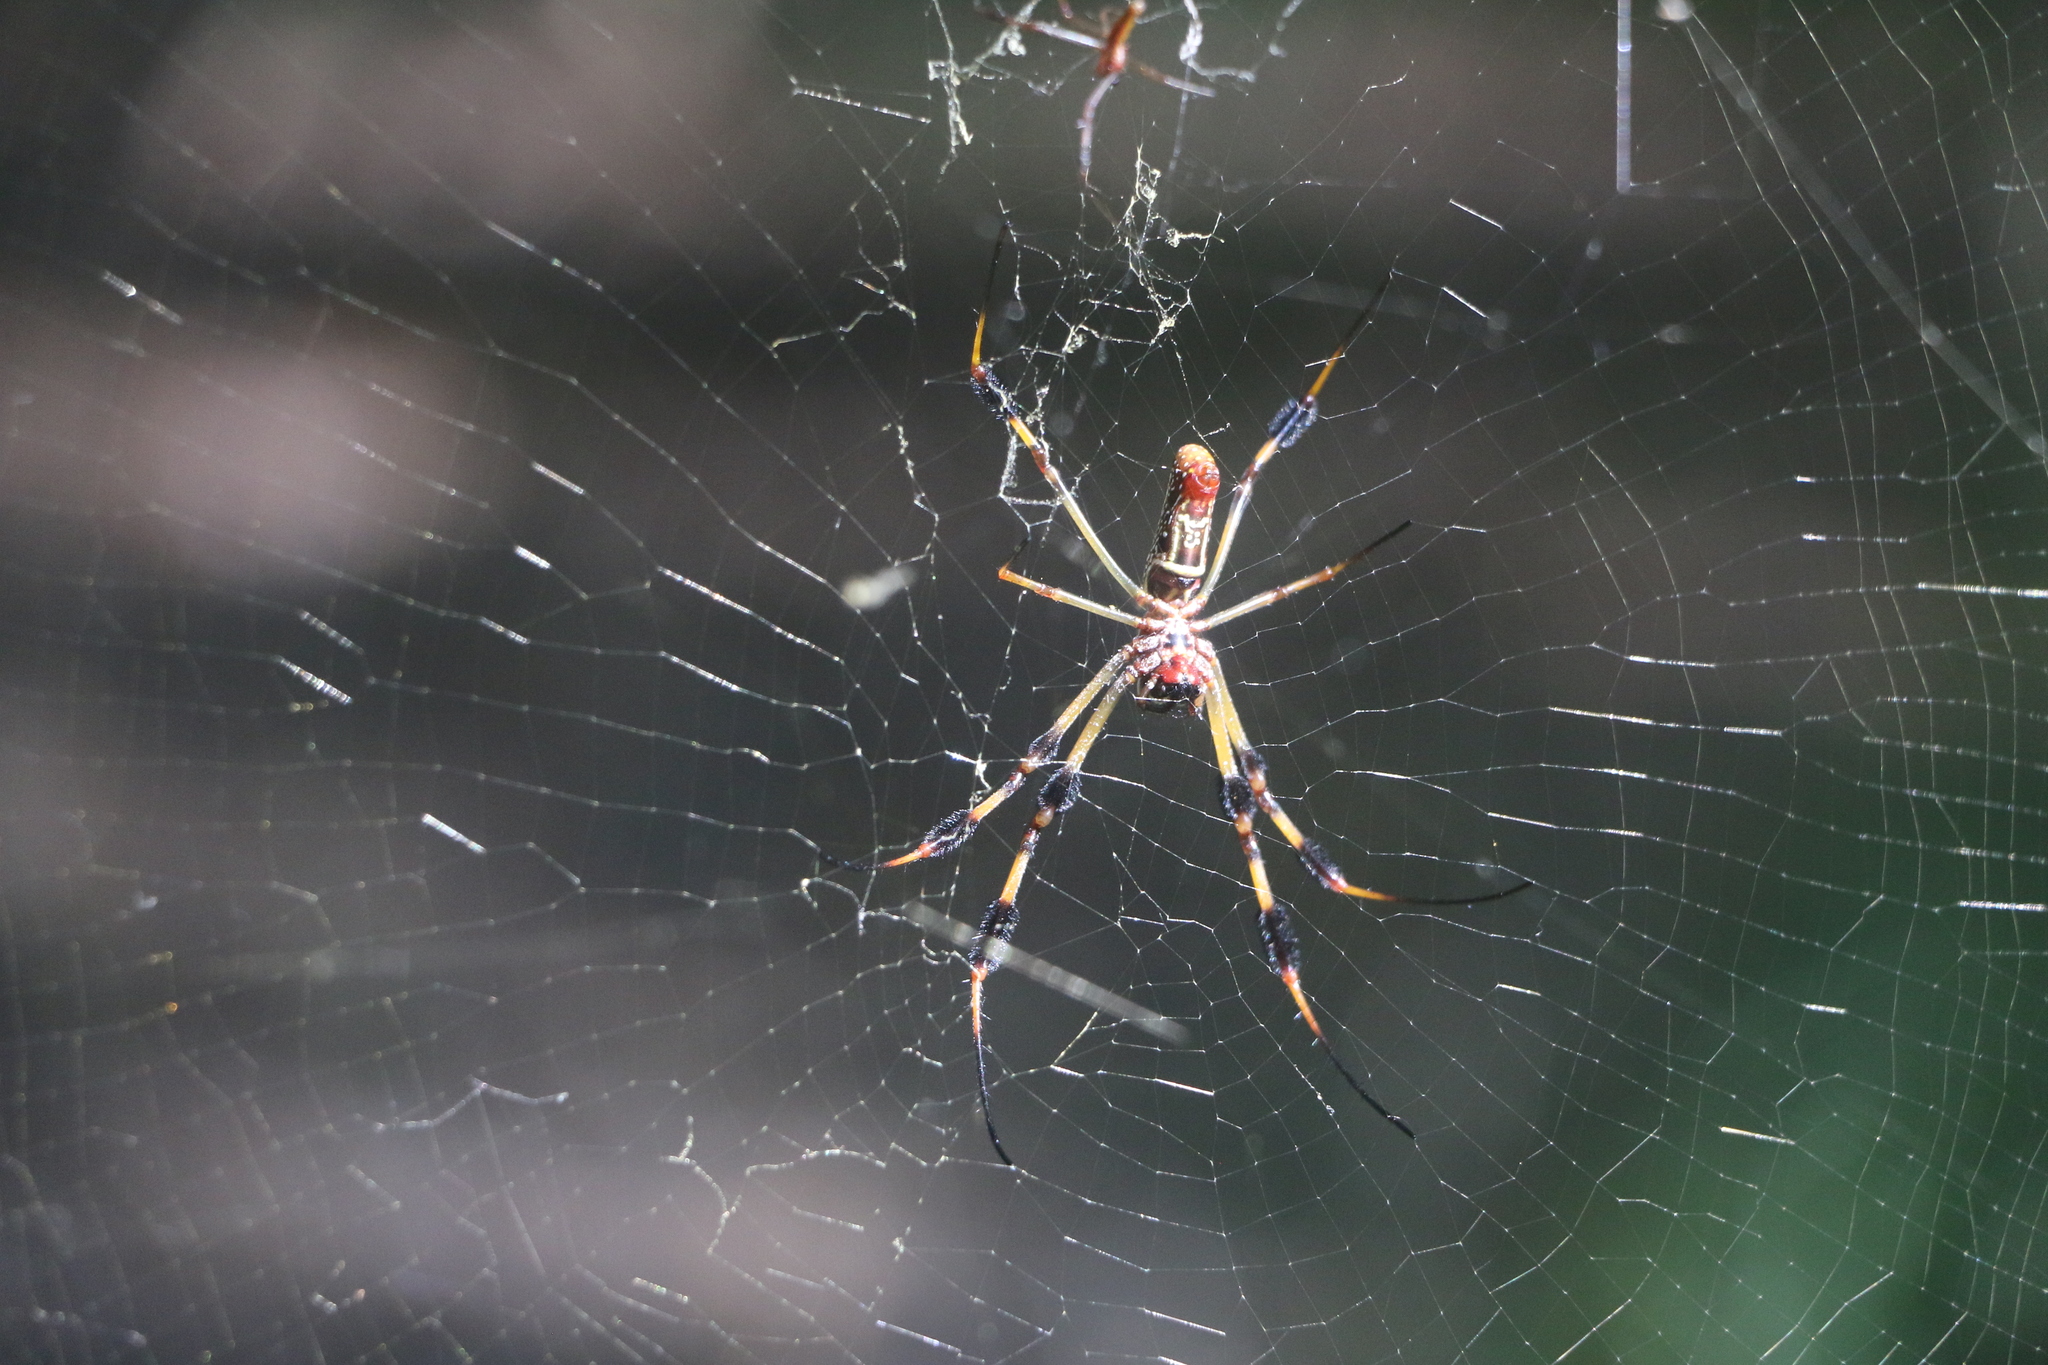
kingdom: Animalia
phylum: Arthropoda
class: Arachnida
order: Araneae
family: Araneidae
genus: Trichonephila
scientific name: Trichonephila clavipes
